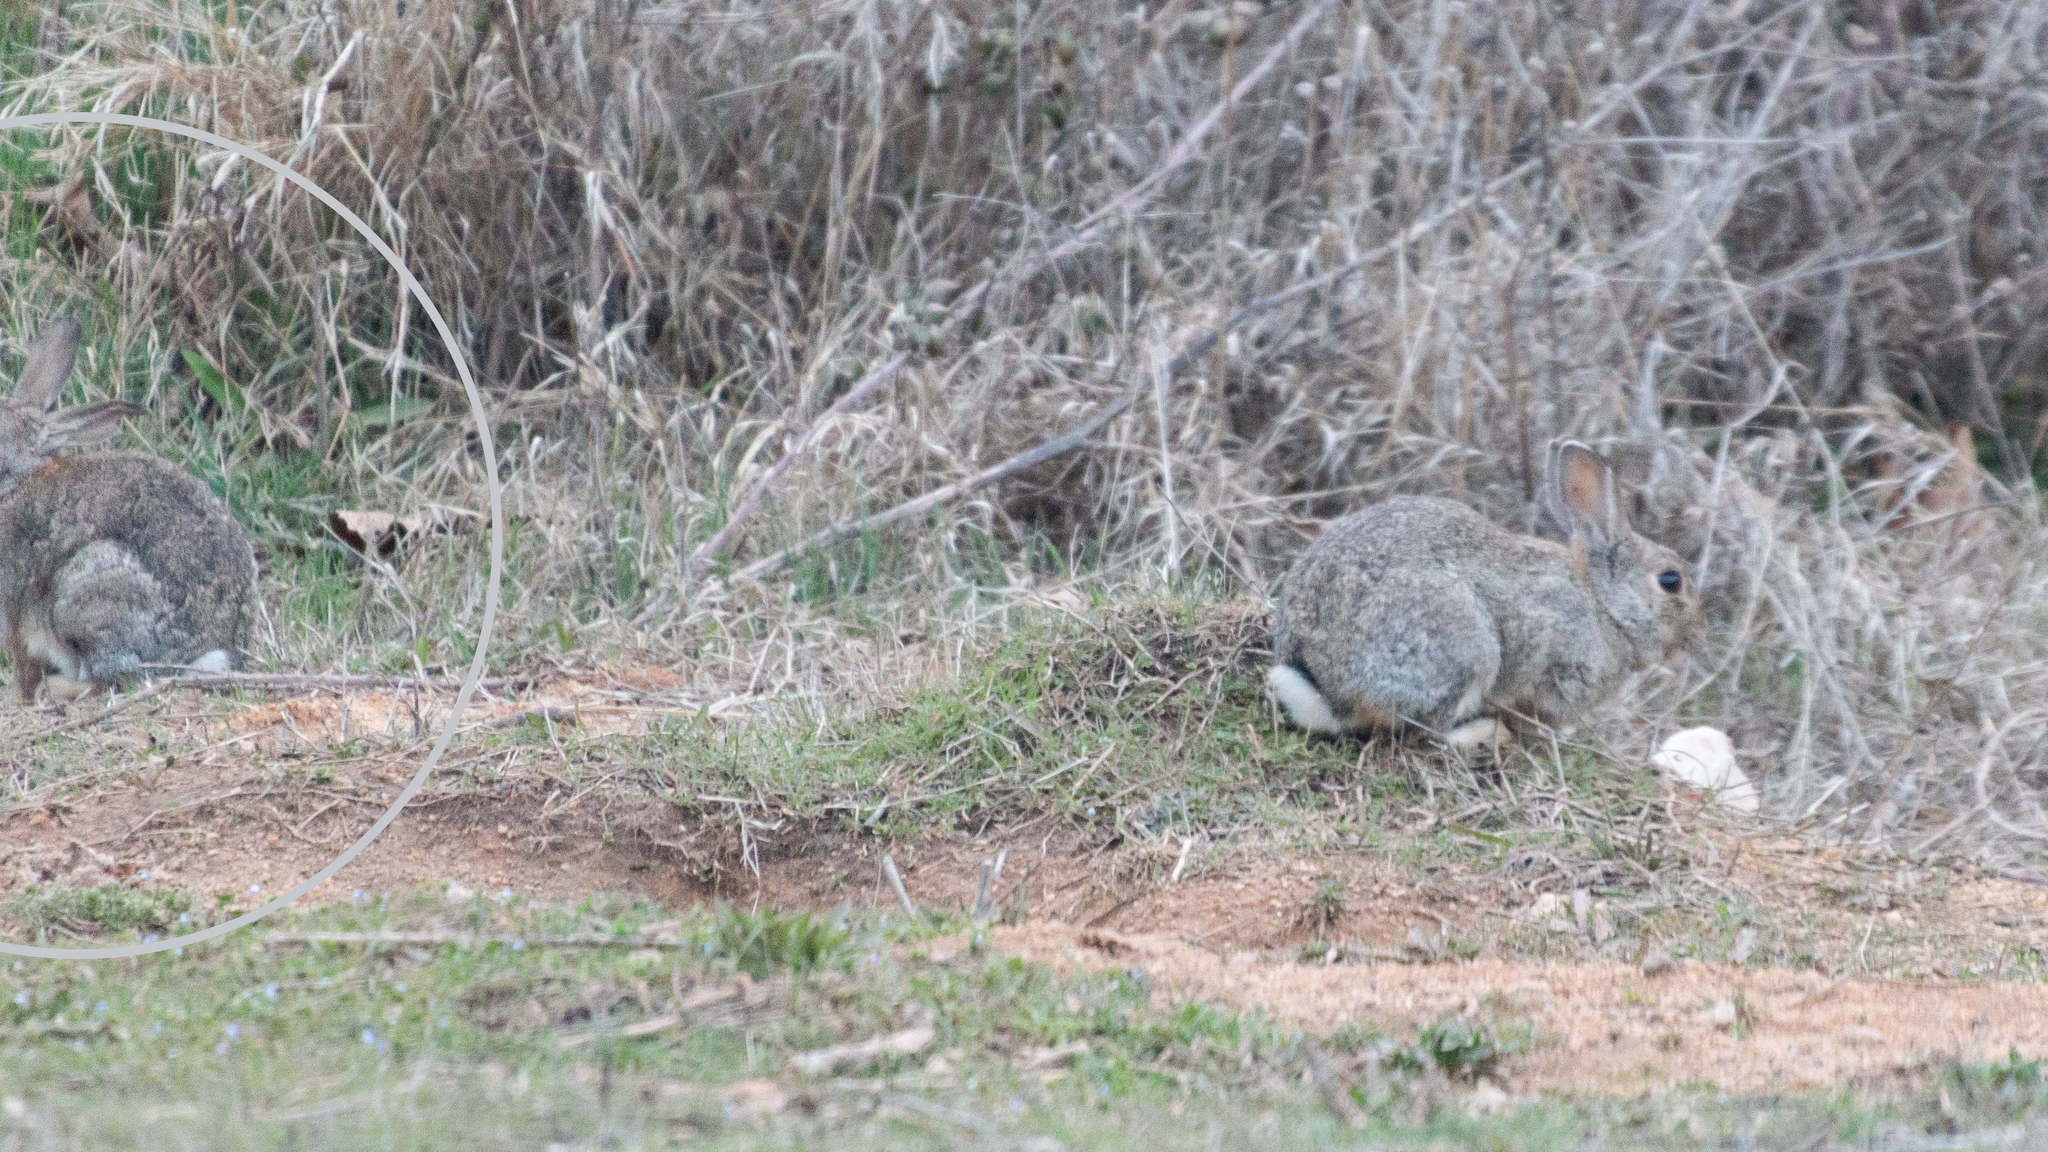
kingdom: Animalia
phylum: Chordata
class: Mammalia
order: Lagomorpha
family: Leporidae
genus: Oryctolagus
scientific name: Oryctolagus cuniculus
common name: European rabbit
